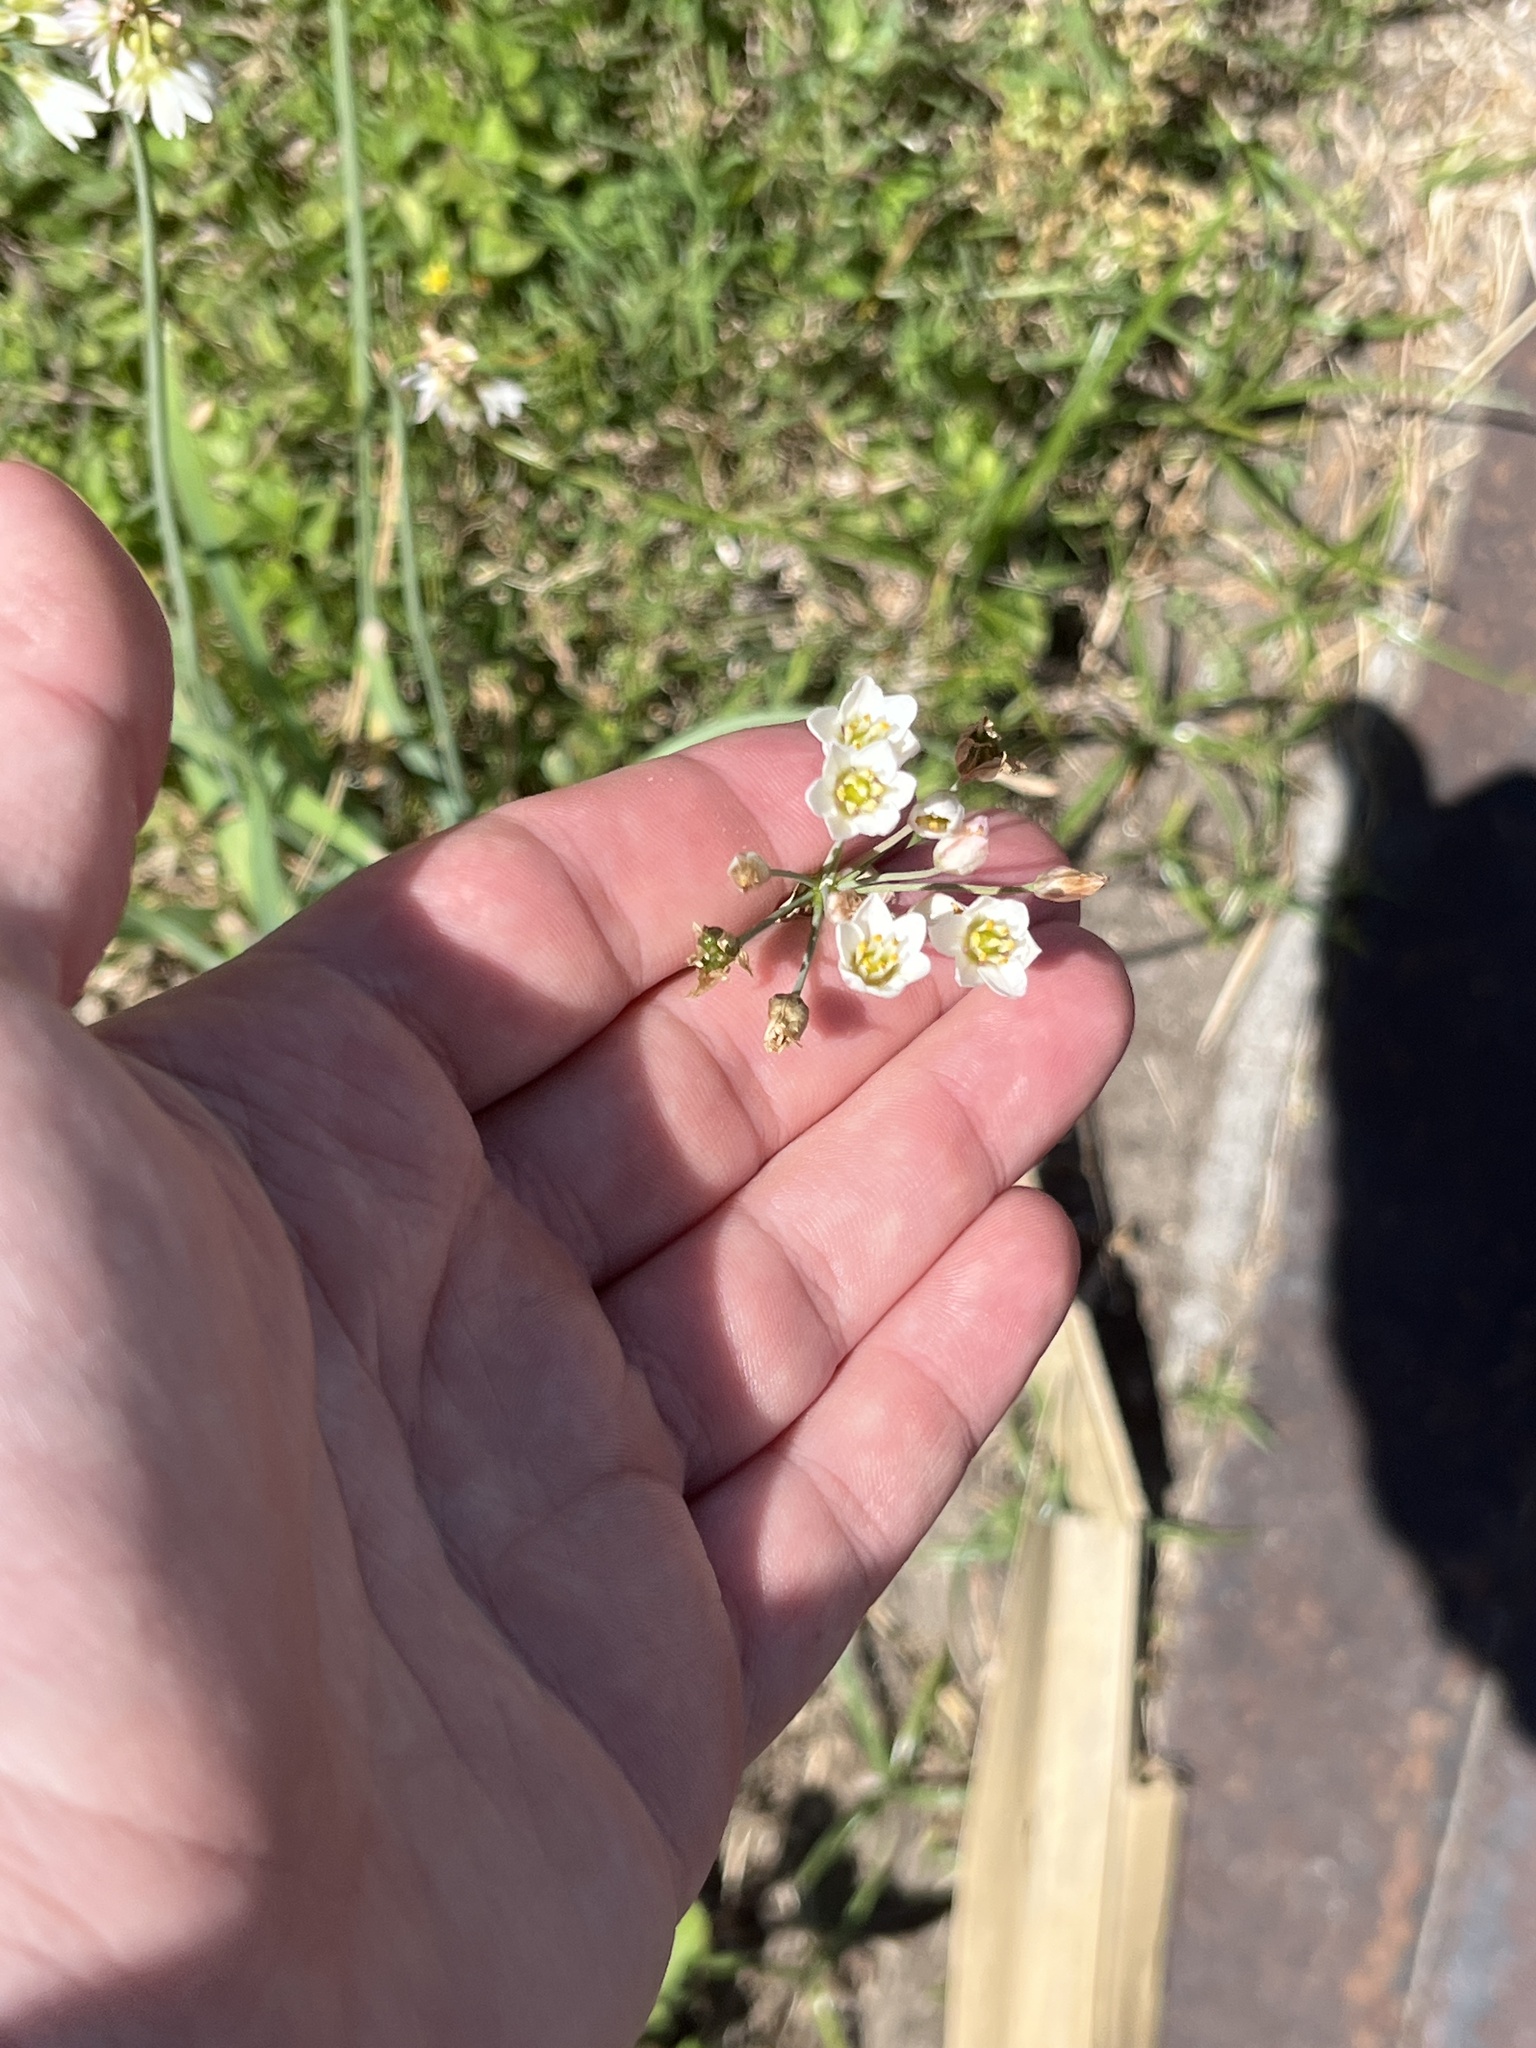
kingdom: Plantae
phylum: Tracheophyta
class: Liliopsida
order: Asparagales
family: Amaryllidaceae
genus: Nothoscordum
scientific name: Nothoscordum gracile
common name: Slender false garlic
